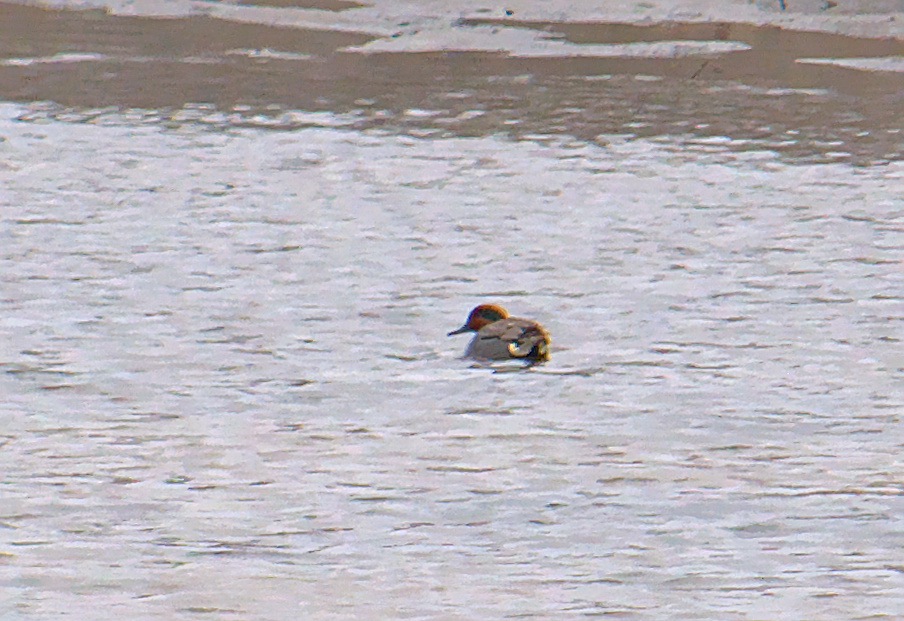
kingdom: Animalia
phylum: Chordata
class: Aves
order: Anseriformes
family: Anatidae
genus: Anas
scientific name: Anas crecca
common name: Eurasian teal
